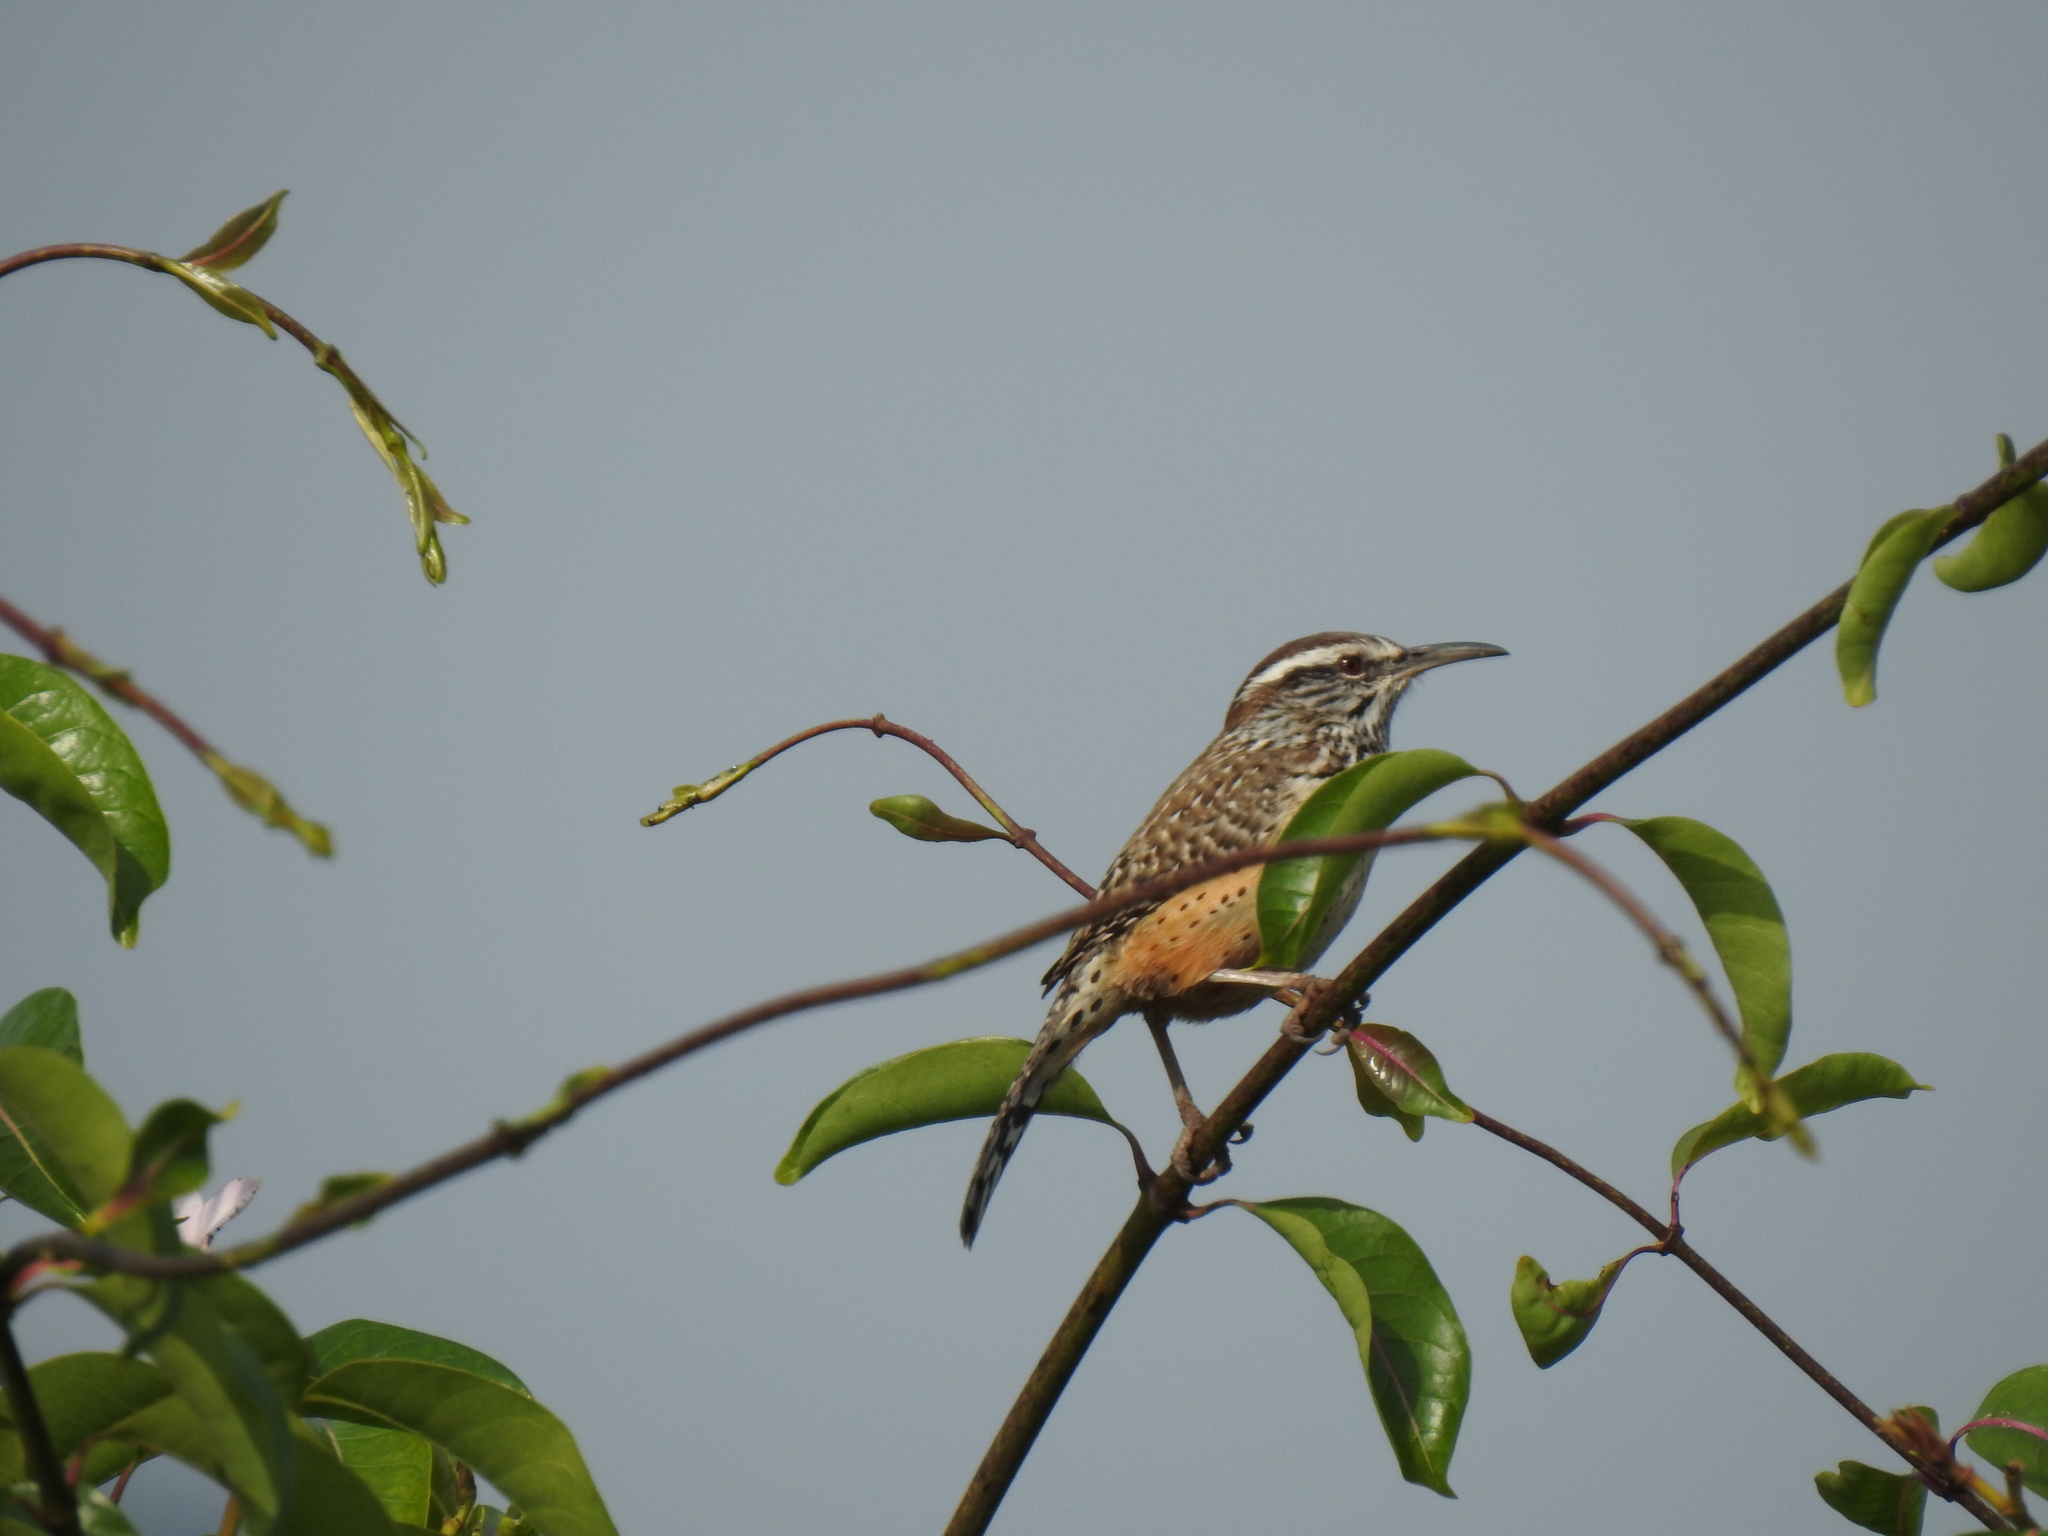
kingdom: Animalia
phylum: Chordata
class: Aves
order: Passeriformes
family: Troglodytidae
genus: Campylorhynchus
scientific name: Campylorhynchus brunneicapillus
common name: Cactus wren
